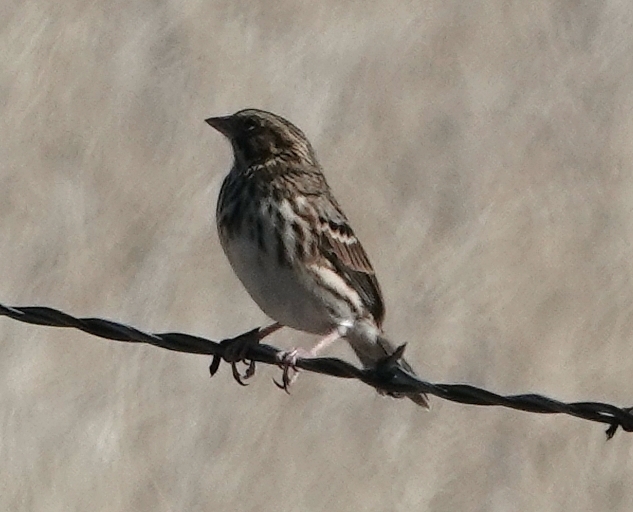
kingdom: Animalia
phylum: Chordata
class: Aves
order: Passeriformes
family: Passerellidae
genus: Passerculus
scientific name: Passerculus sandwichensis
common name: Savannah sparrow
